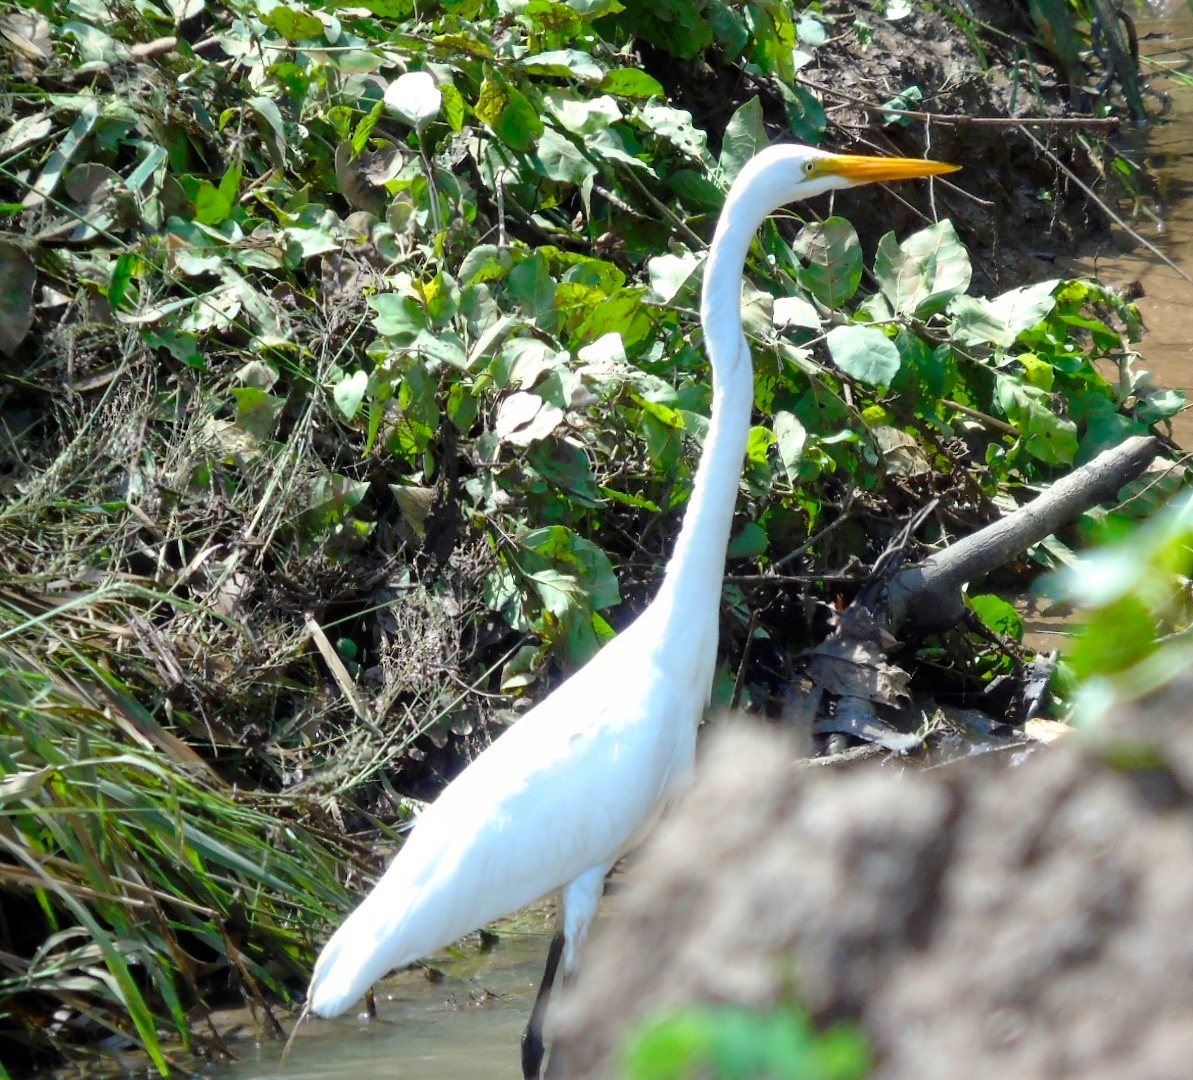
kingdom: Animalia
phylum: Chordata
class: Aves
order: Pelecaniformes
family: Ardeidae
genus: Ardea
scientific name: Ardea alba
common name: Great egret
